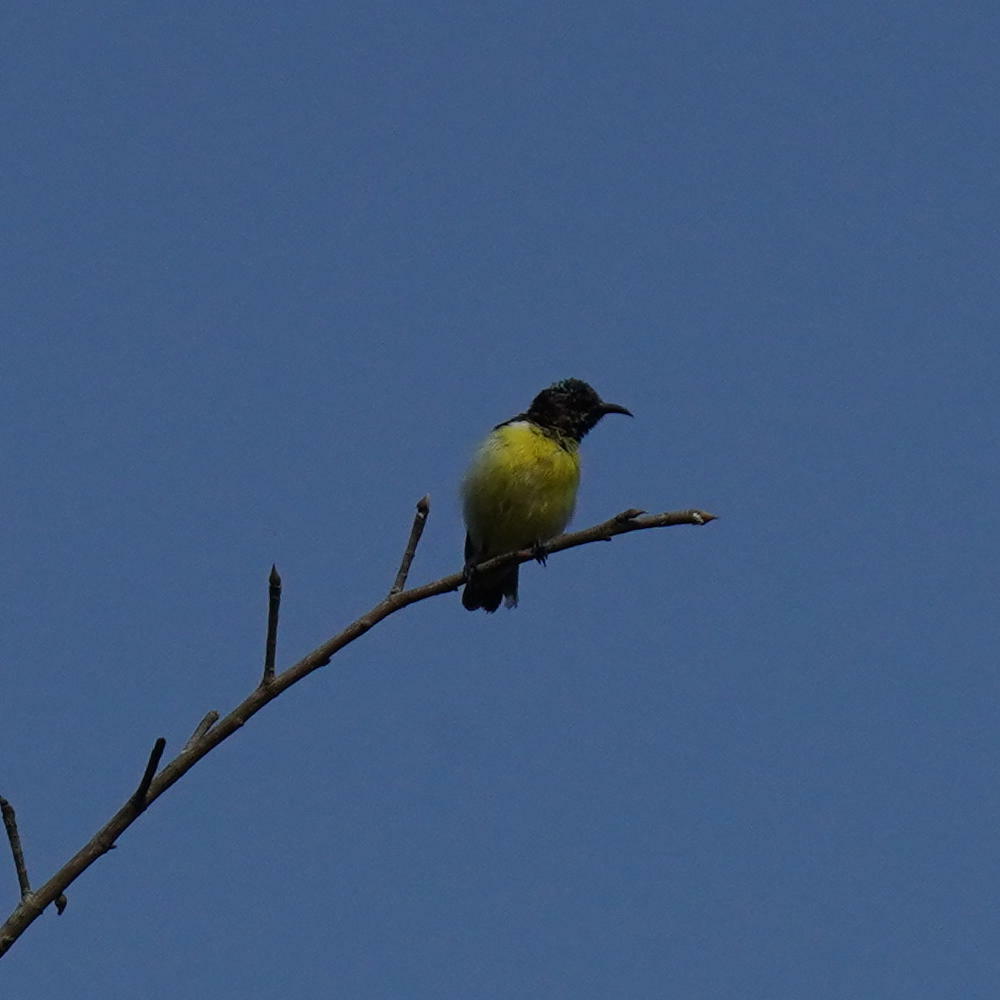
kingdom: Animalia
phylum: Chordata
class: Aves
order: Passeriformes
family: Nectariniidae
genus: Leptocoma
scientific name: Leptocoma zeylonica
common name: Purple-rumped sunbird
